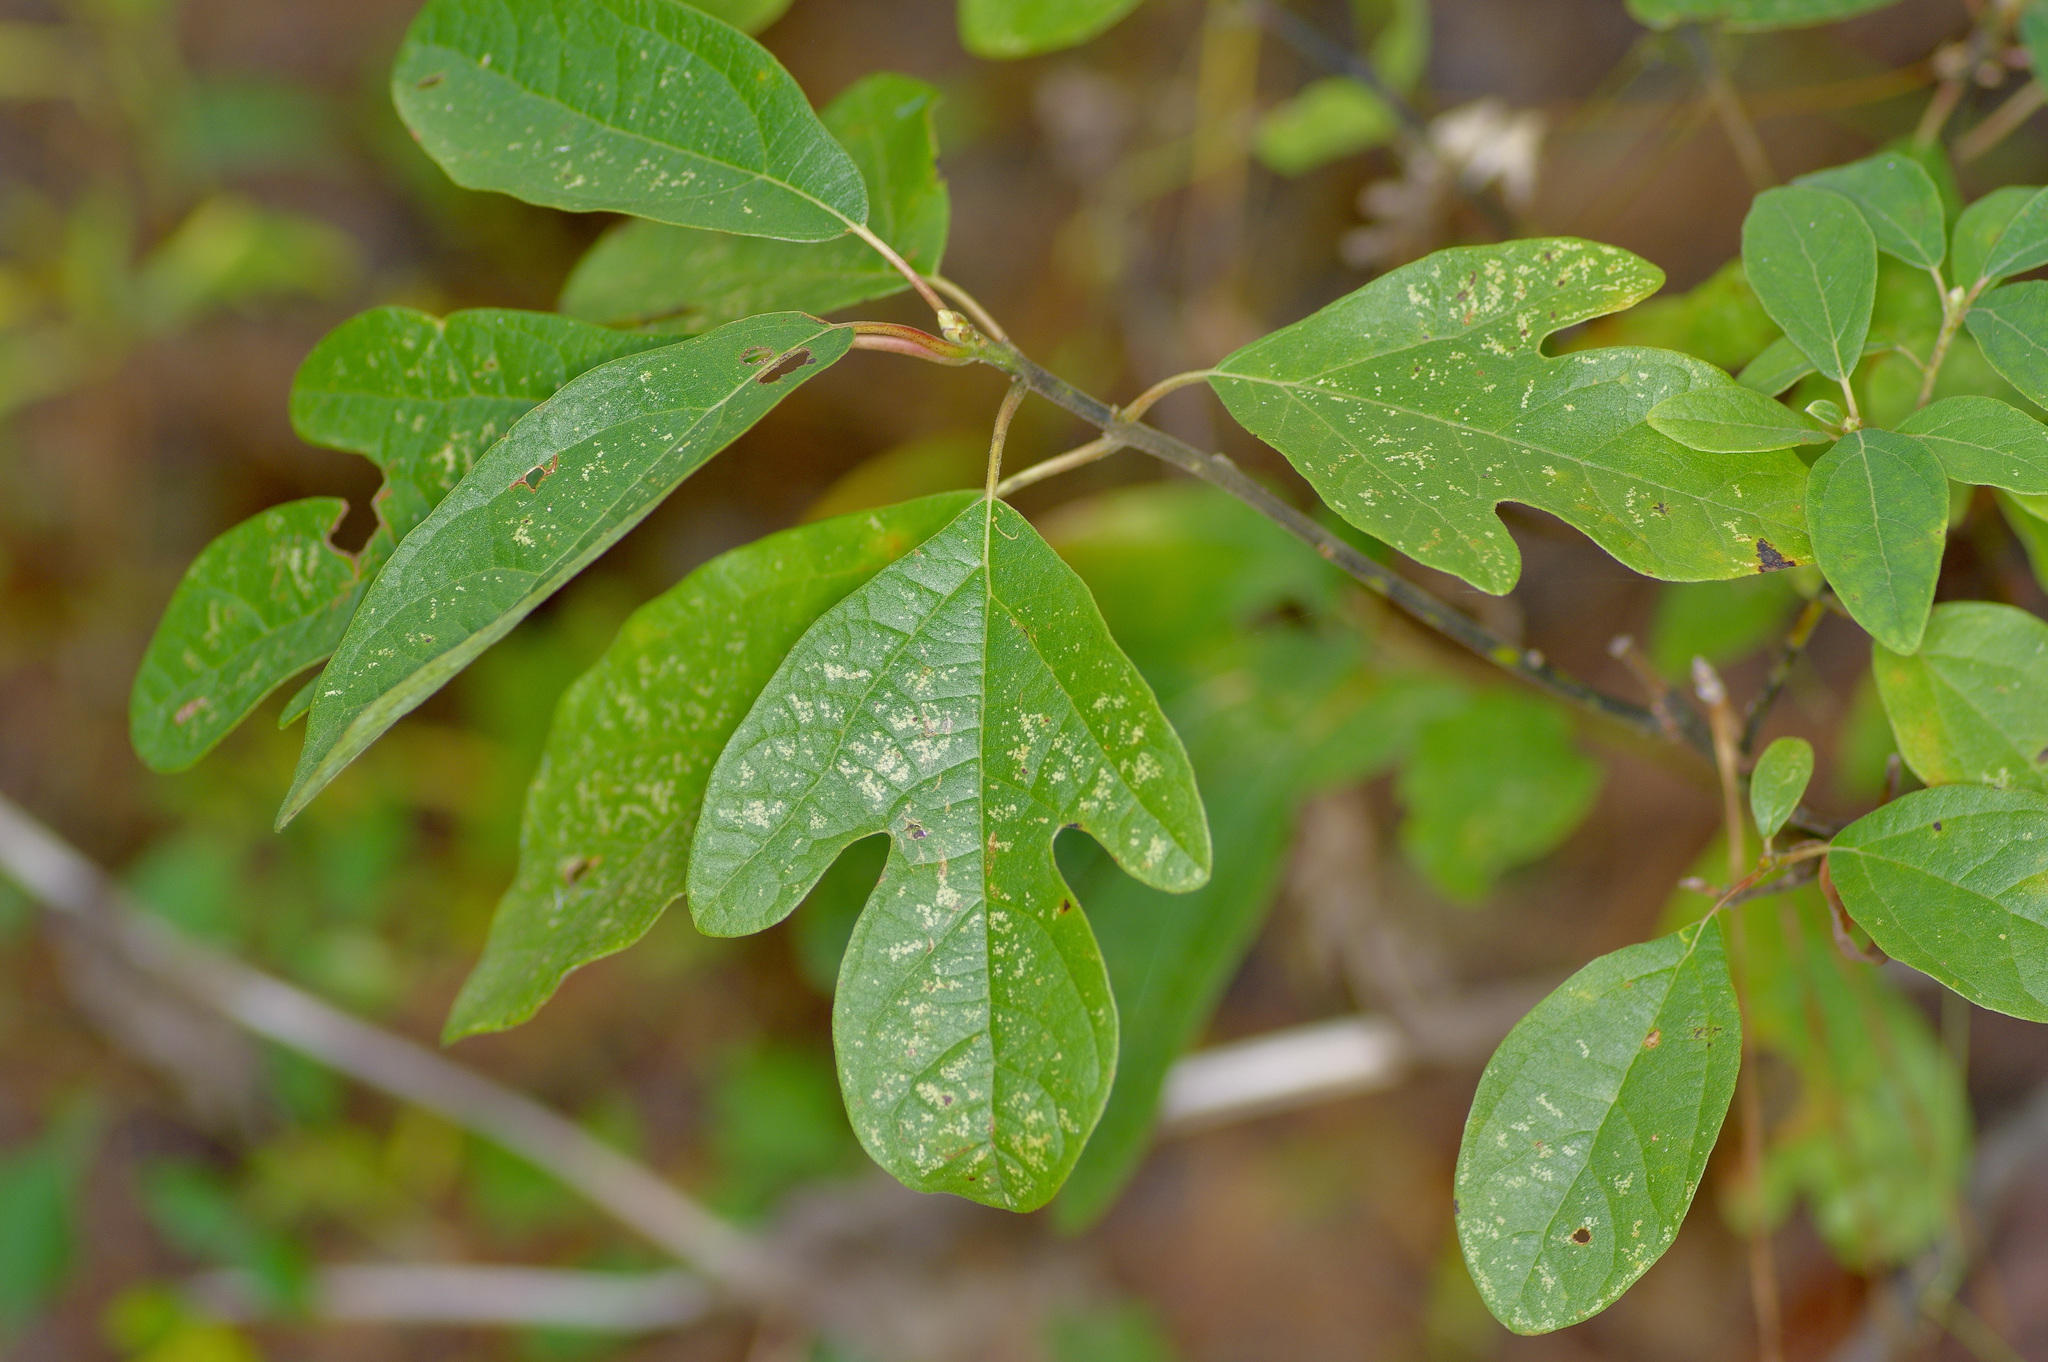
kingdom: Plantae
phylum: Tracheophyta
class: Magnoliopsida
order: Laurales
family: Lauraceae
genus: Sassafras
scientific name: Sassafras albidum
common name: Sassafras
